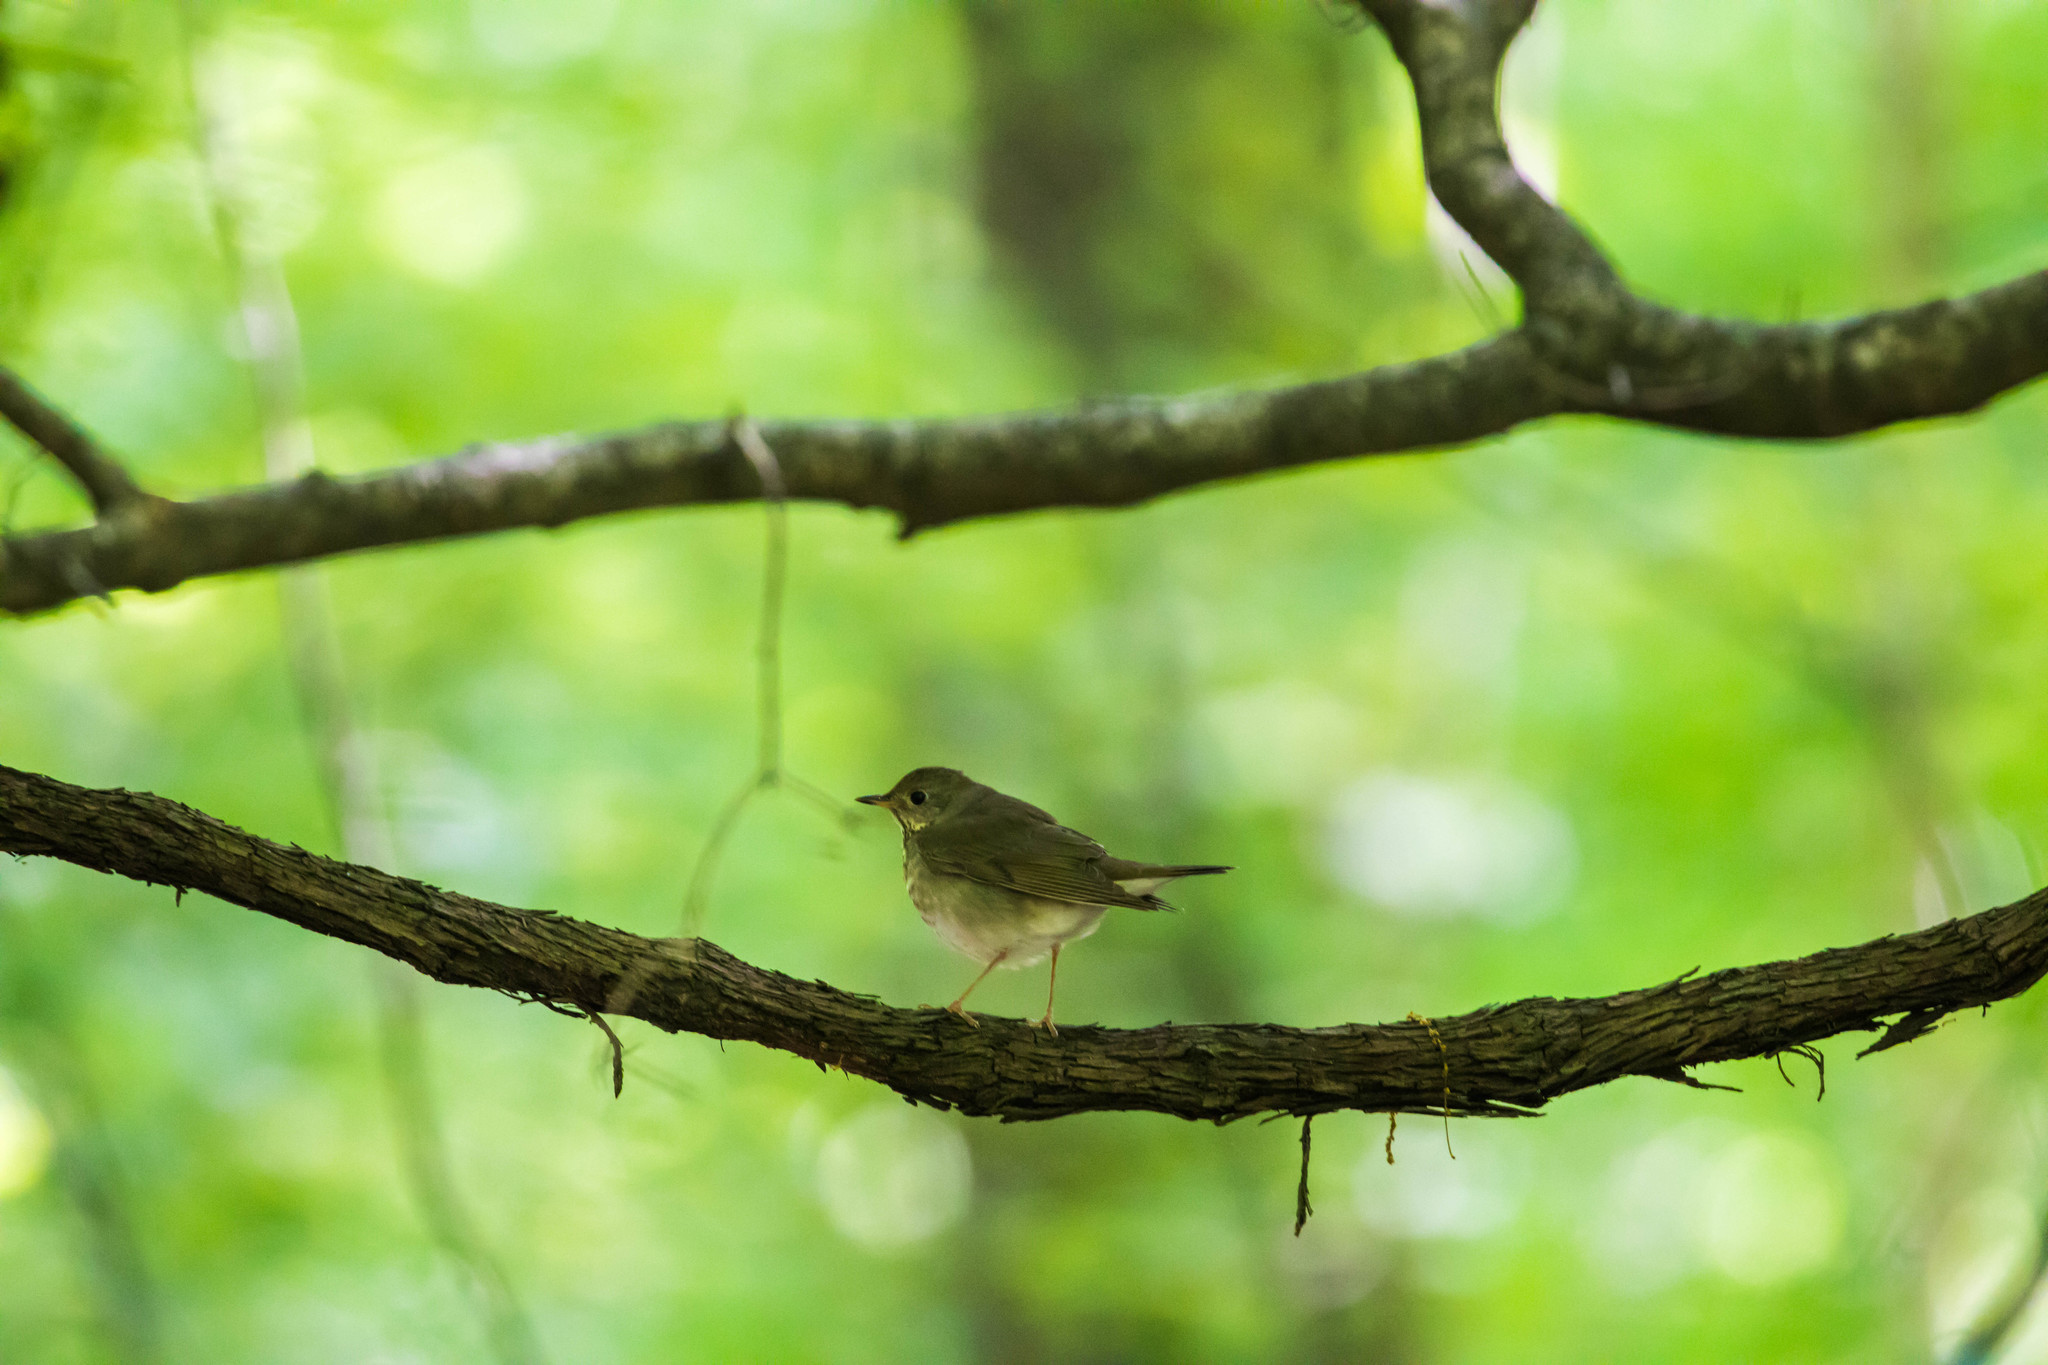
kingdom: Animalia
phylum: Chordata
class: Aves
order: Passeriformes
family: Turdidae
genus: Catharus
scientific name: Catharus ustulatus
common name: Swainson's thrush
